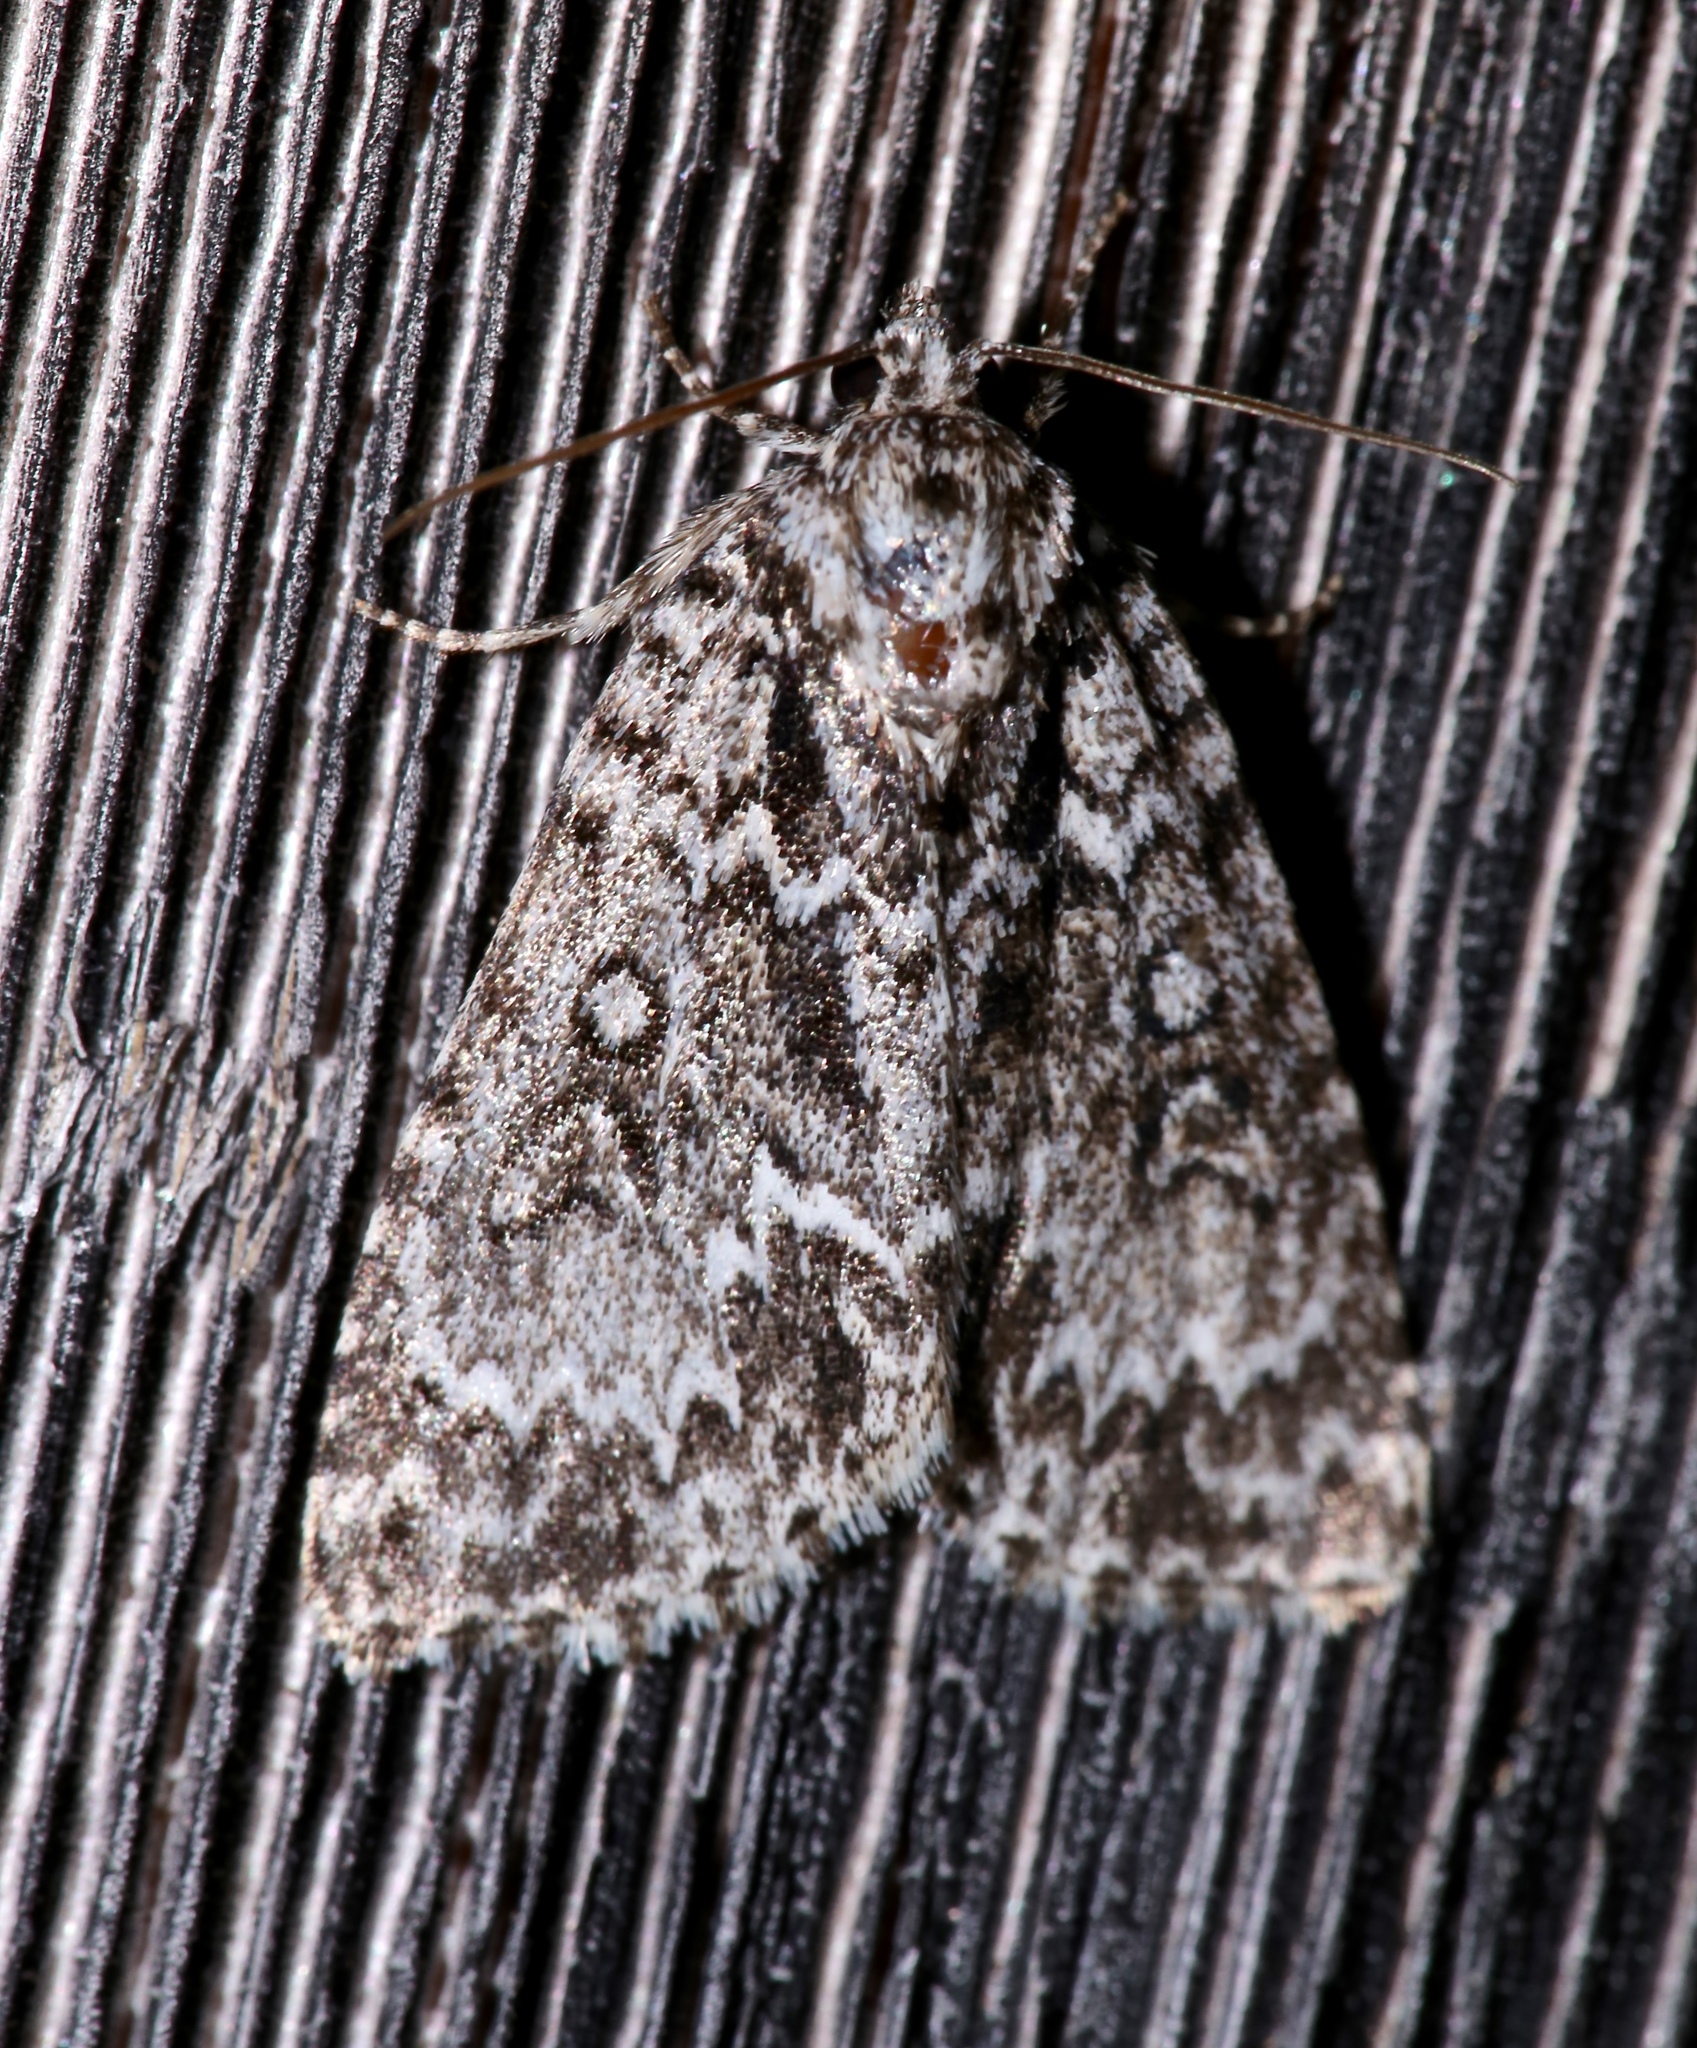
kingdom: Animalia
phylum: Arthropoda
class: Insecta
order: Lepidoptera
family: Noctuidae
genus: Acronicta
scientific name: Acronicta fragilis
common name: Fragile dagger
